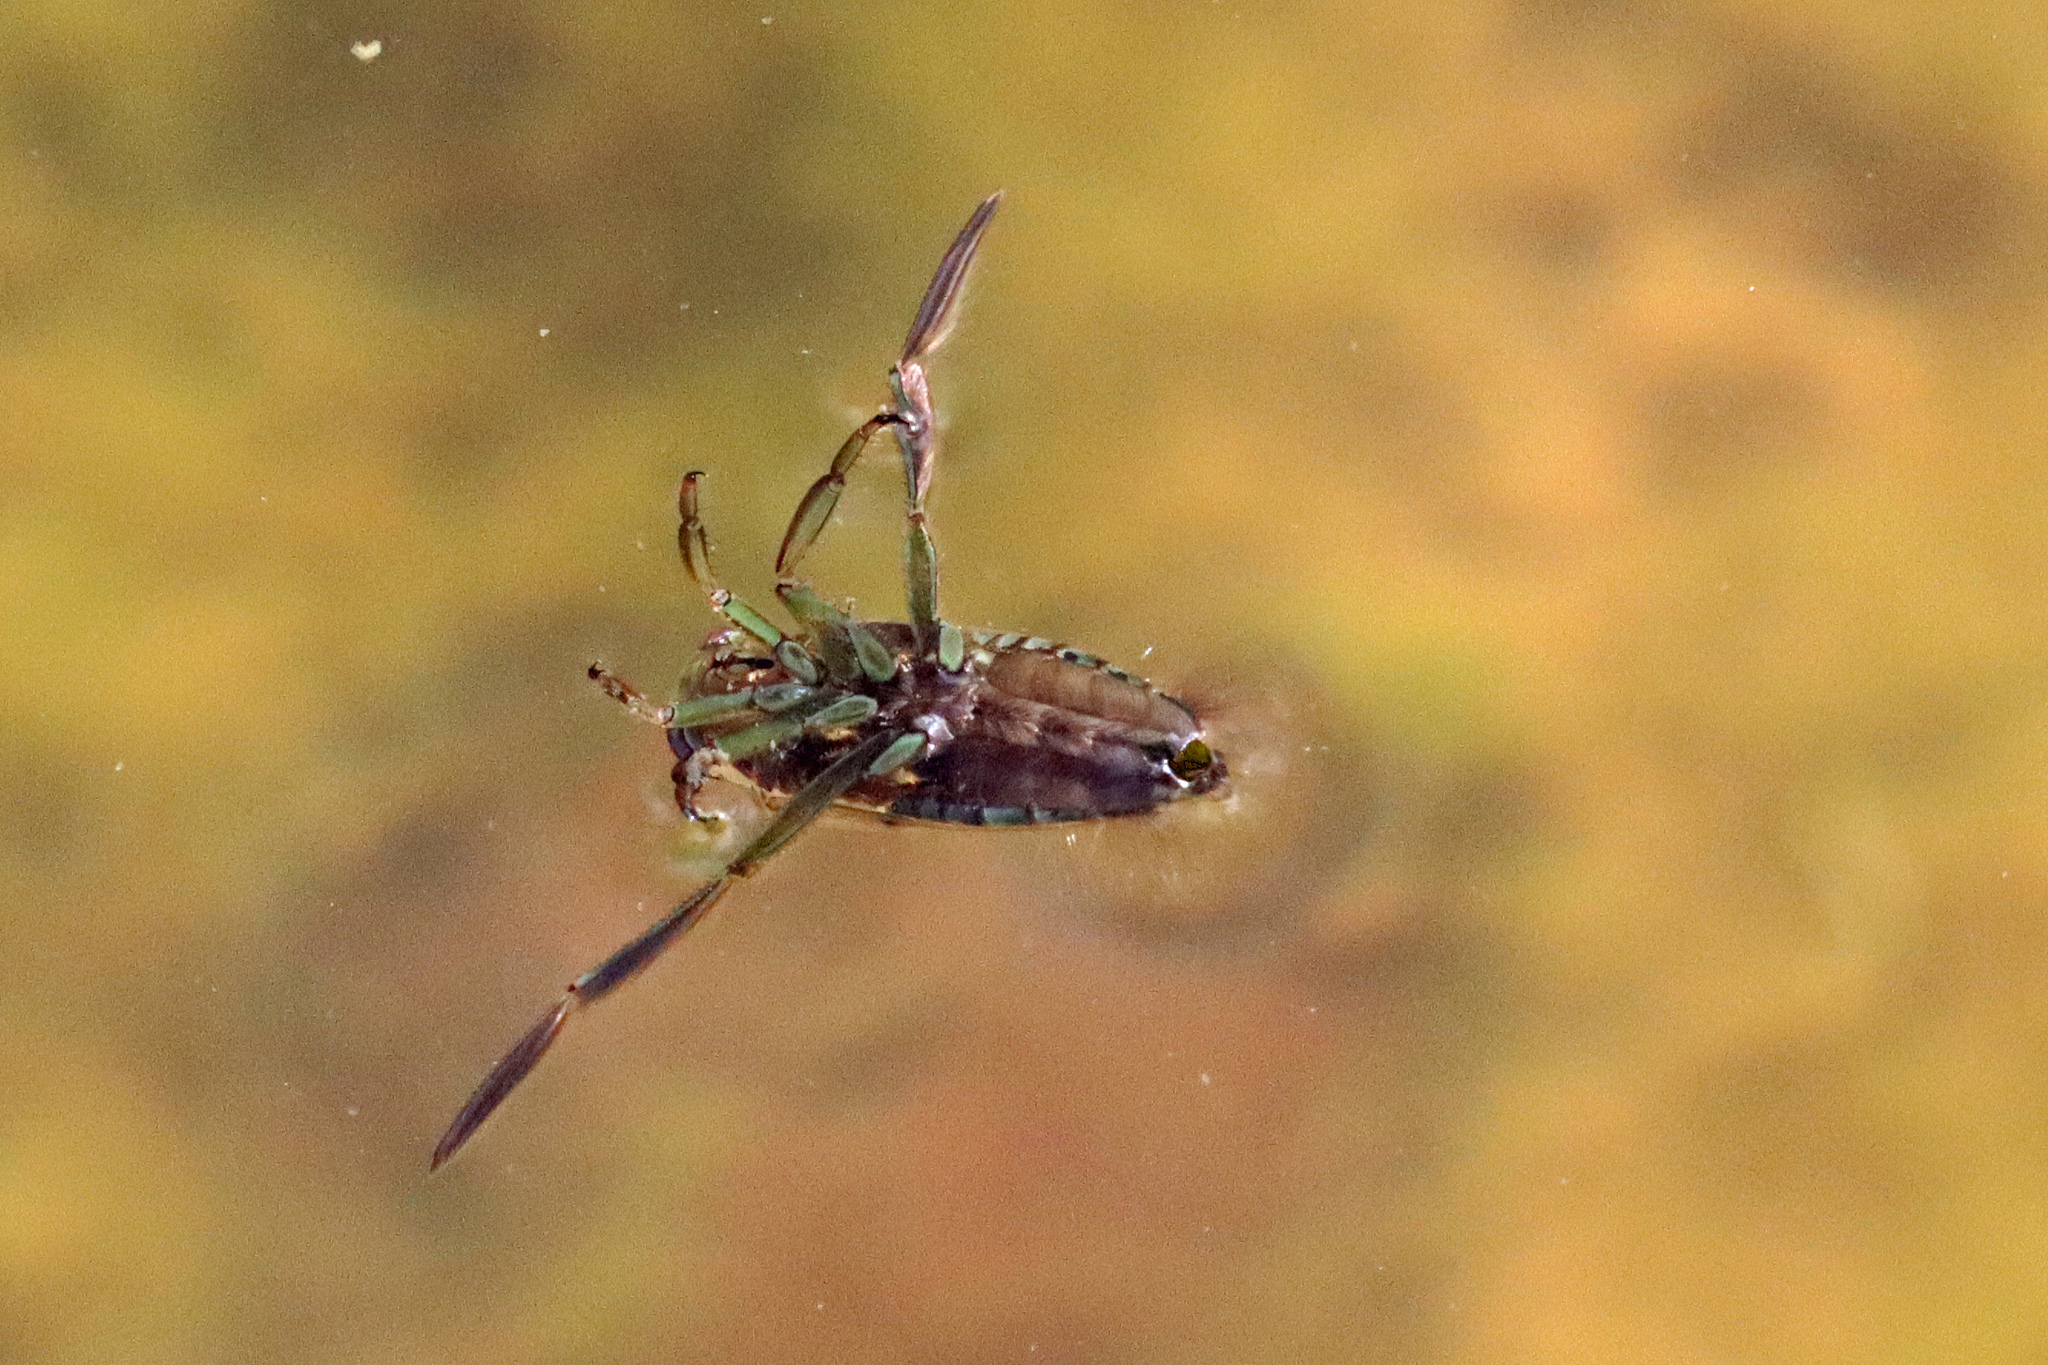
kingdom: Animalia
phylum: Arthropoda
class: Insecta
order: Hemiptera
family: Notonectidae
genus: Notonecta
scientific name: Notonecta
